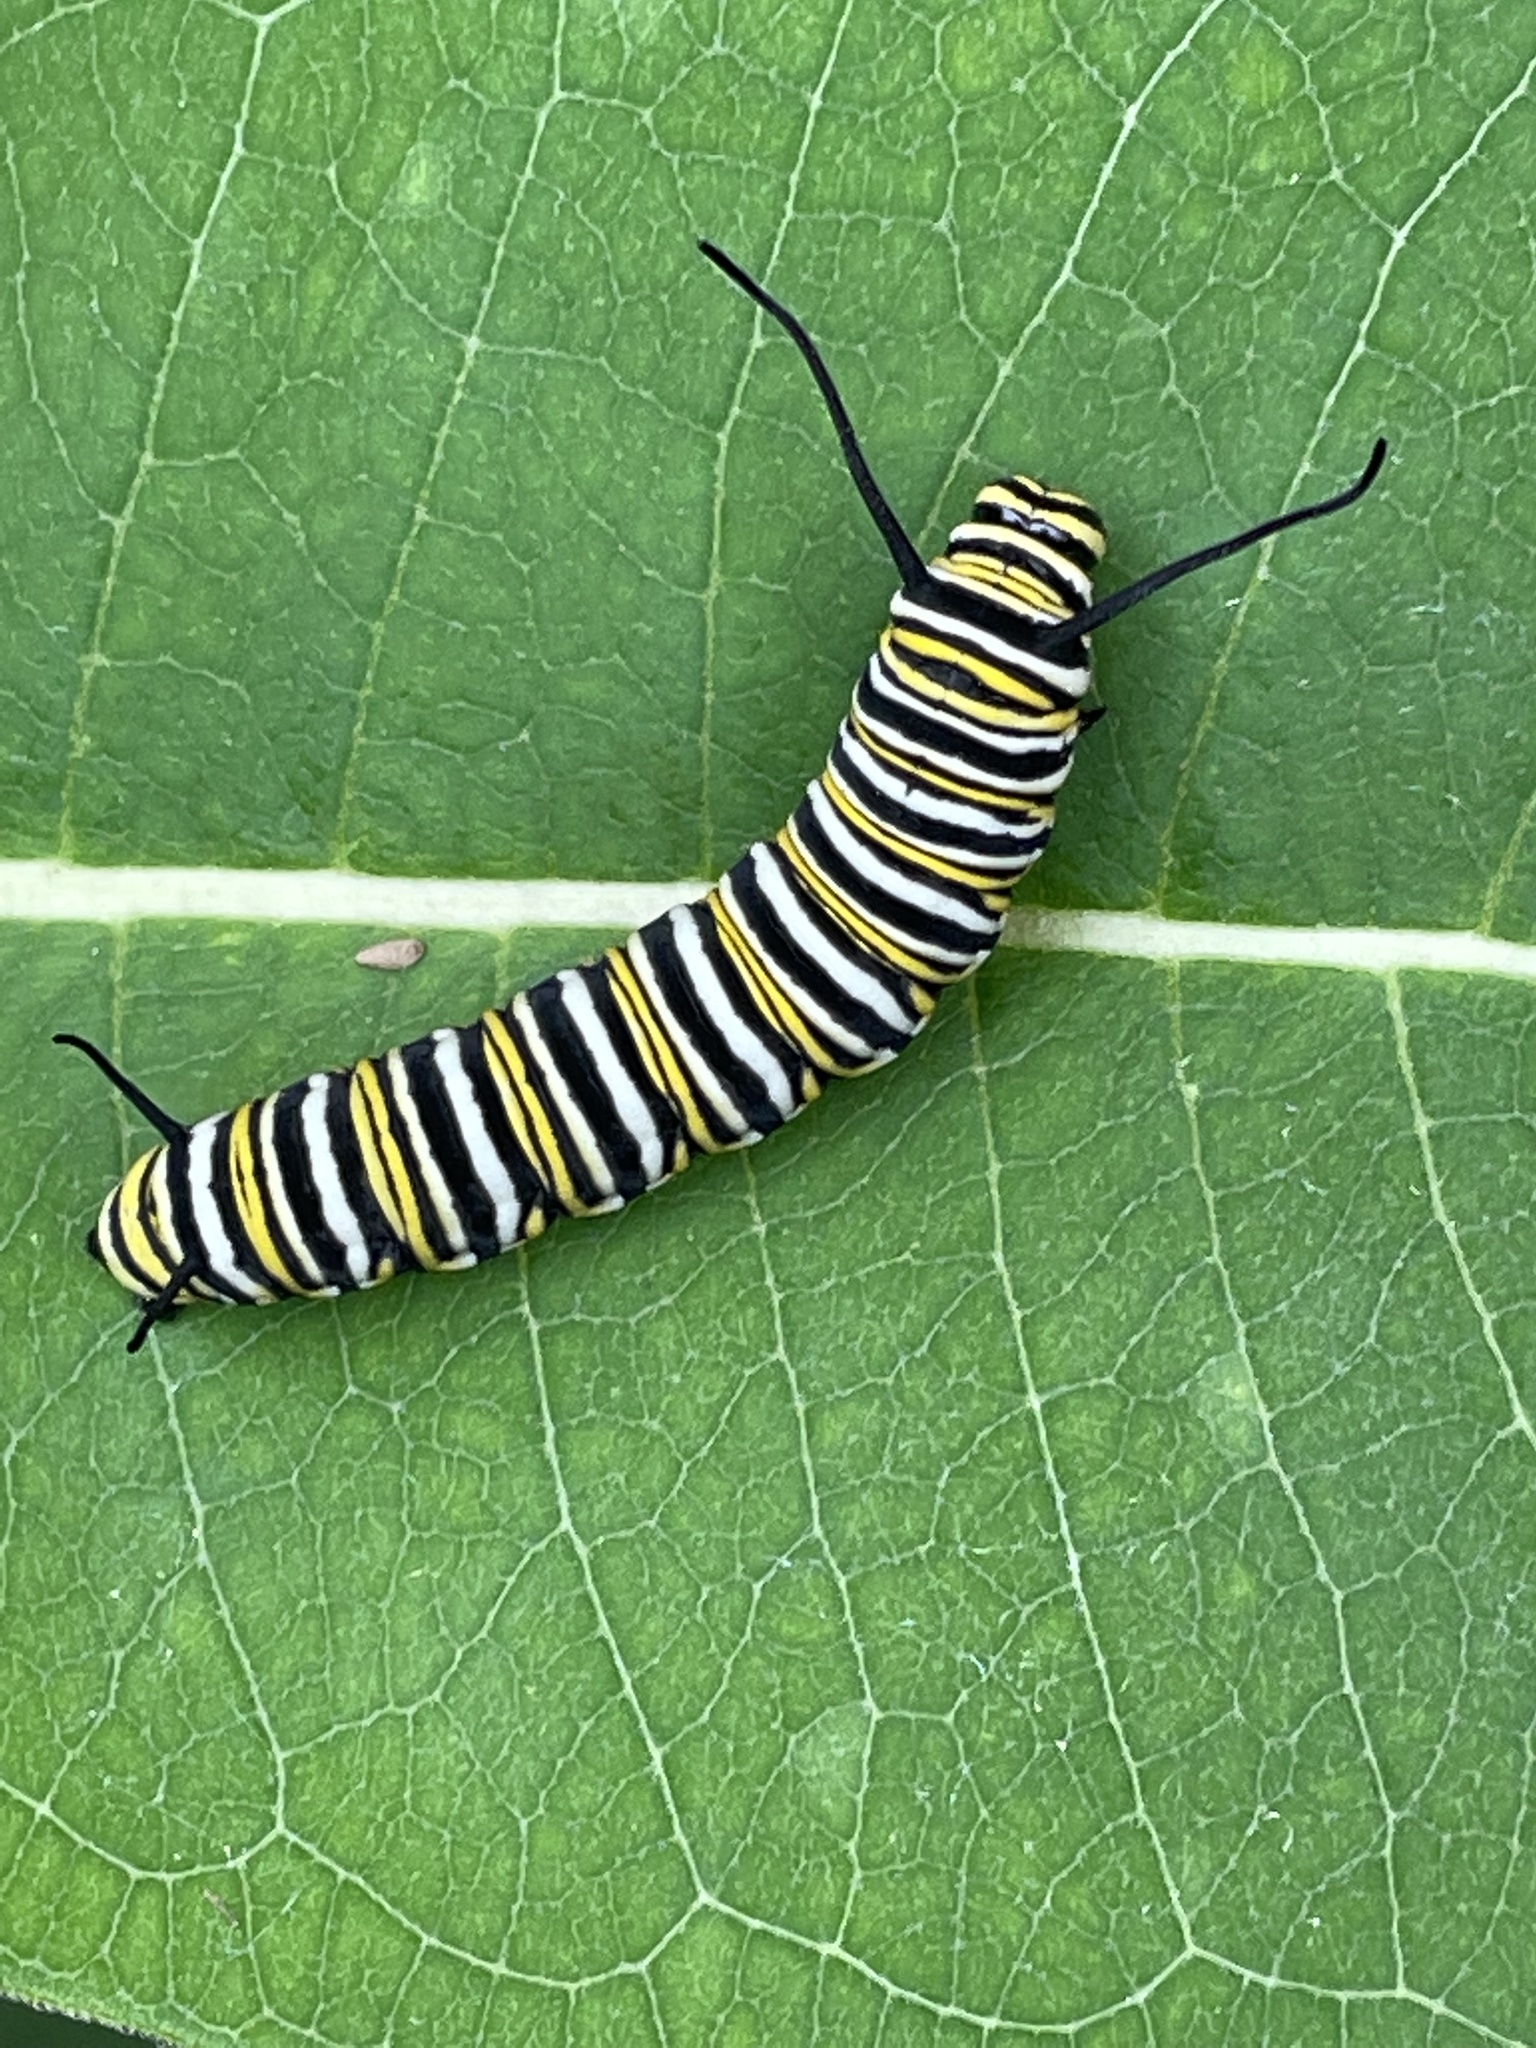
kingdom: Animalia
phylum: Arthropoda
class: Insecta
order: Lepidoptera
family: Nymphalidae
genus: Danaus
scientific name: Danaus plexippus
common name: Monarch
